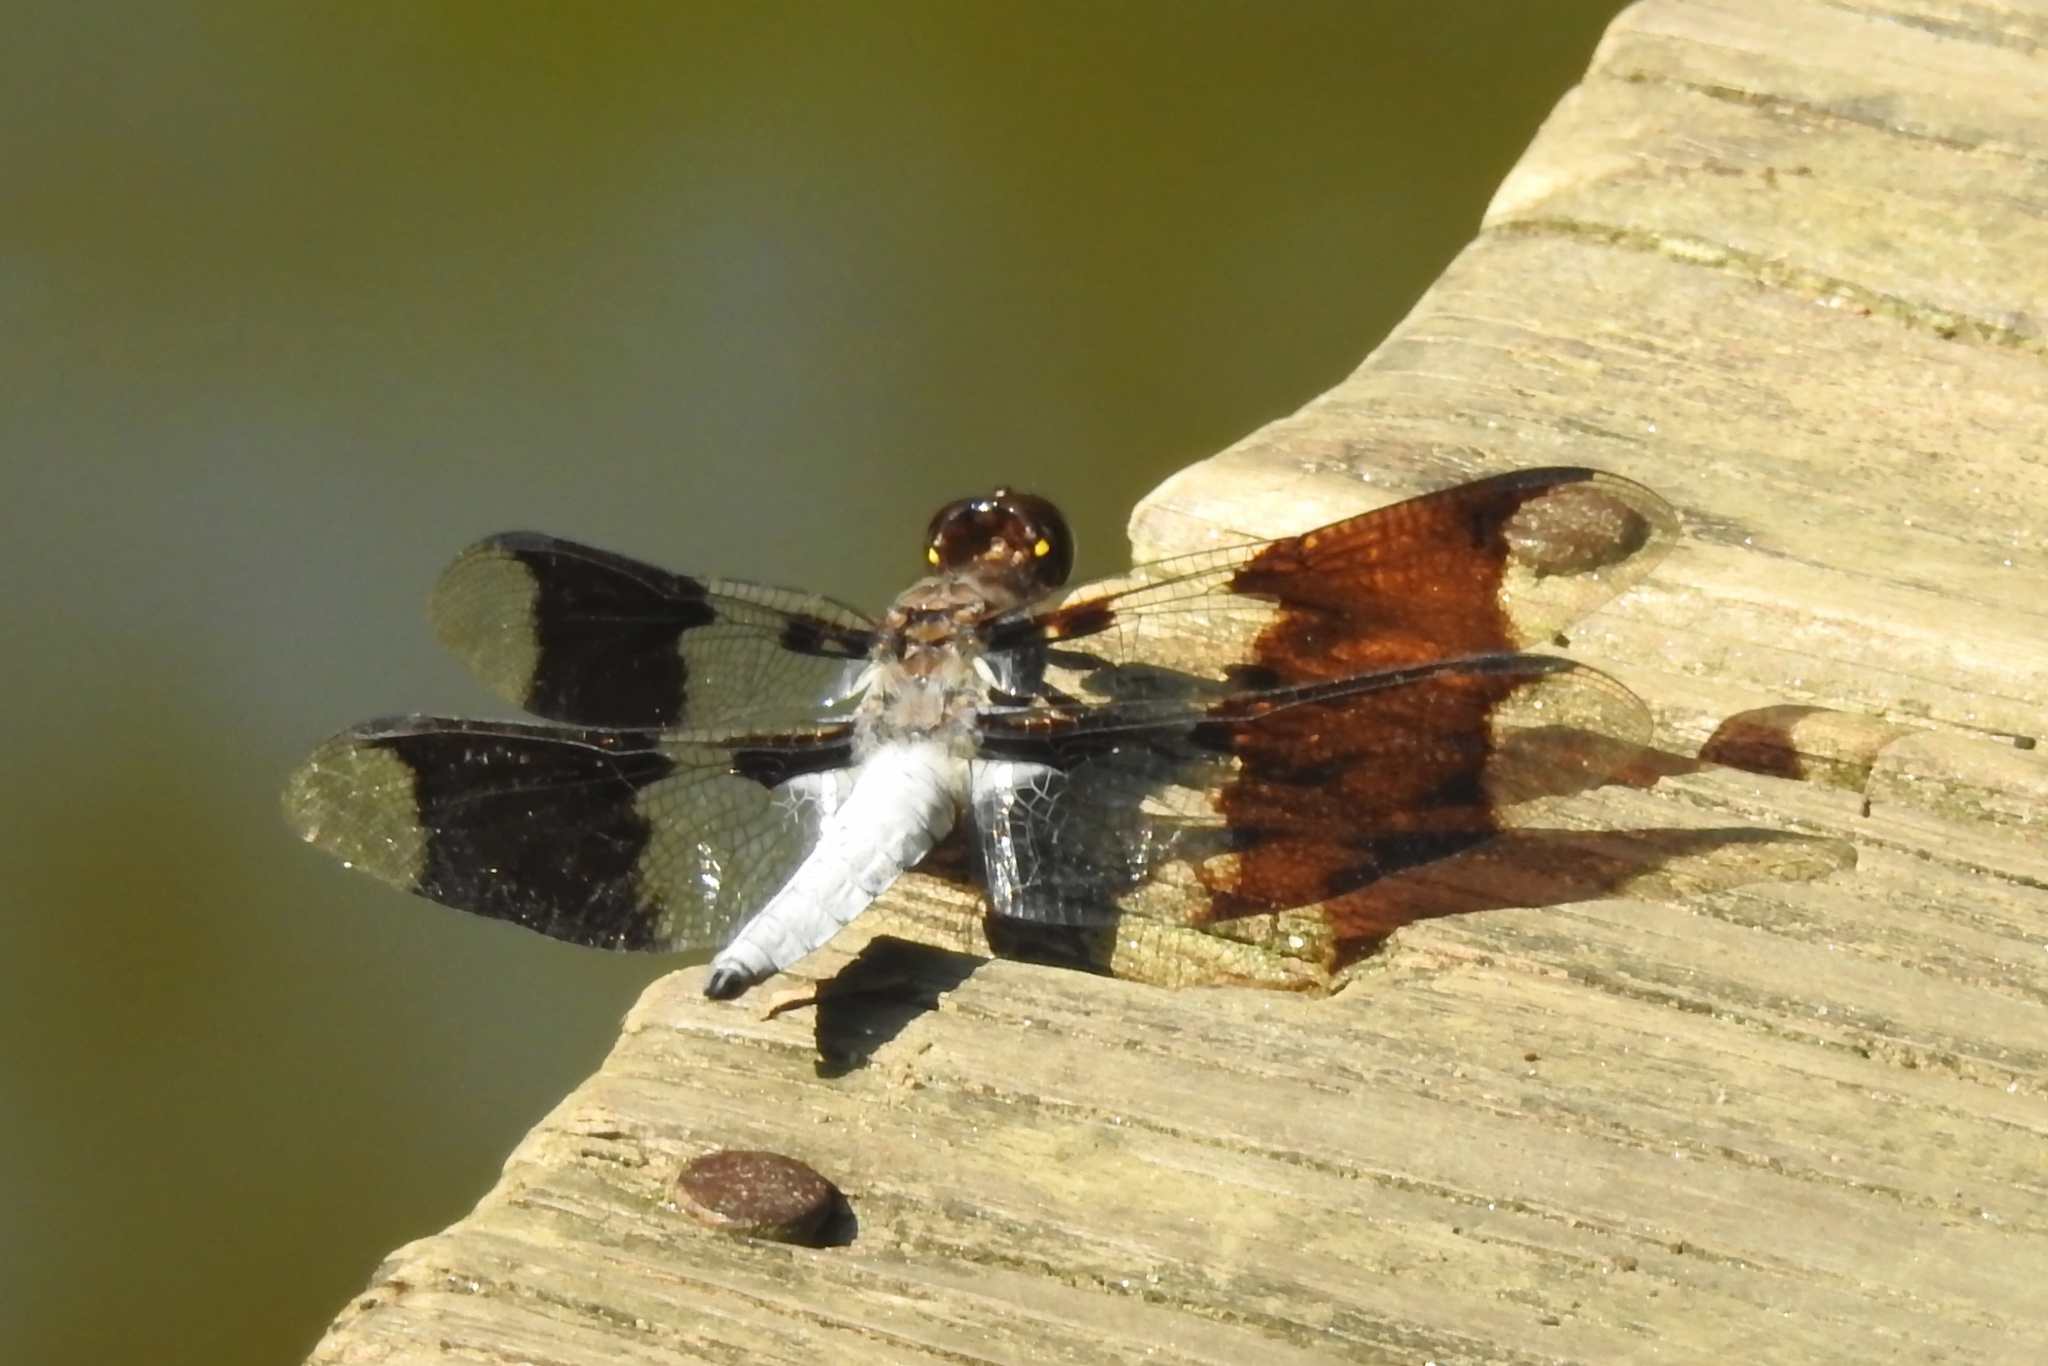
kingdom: Animalia
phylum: Arthropoda
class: Insecta
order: Odonata
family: Libellulidae
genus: Plathemis
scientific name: Plathemis lydia
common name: Common whitetail
